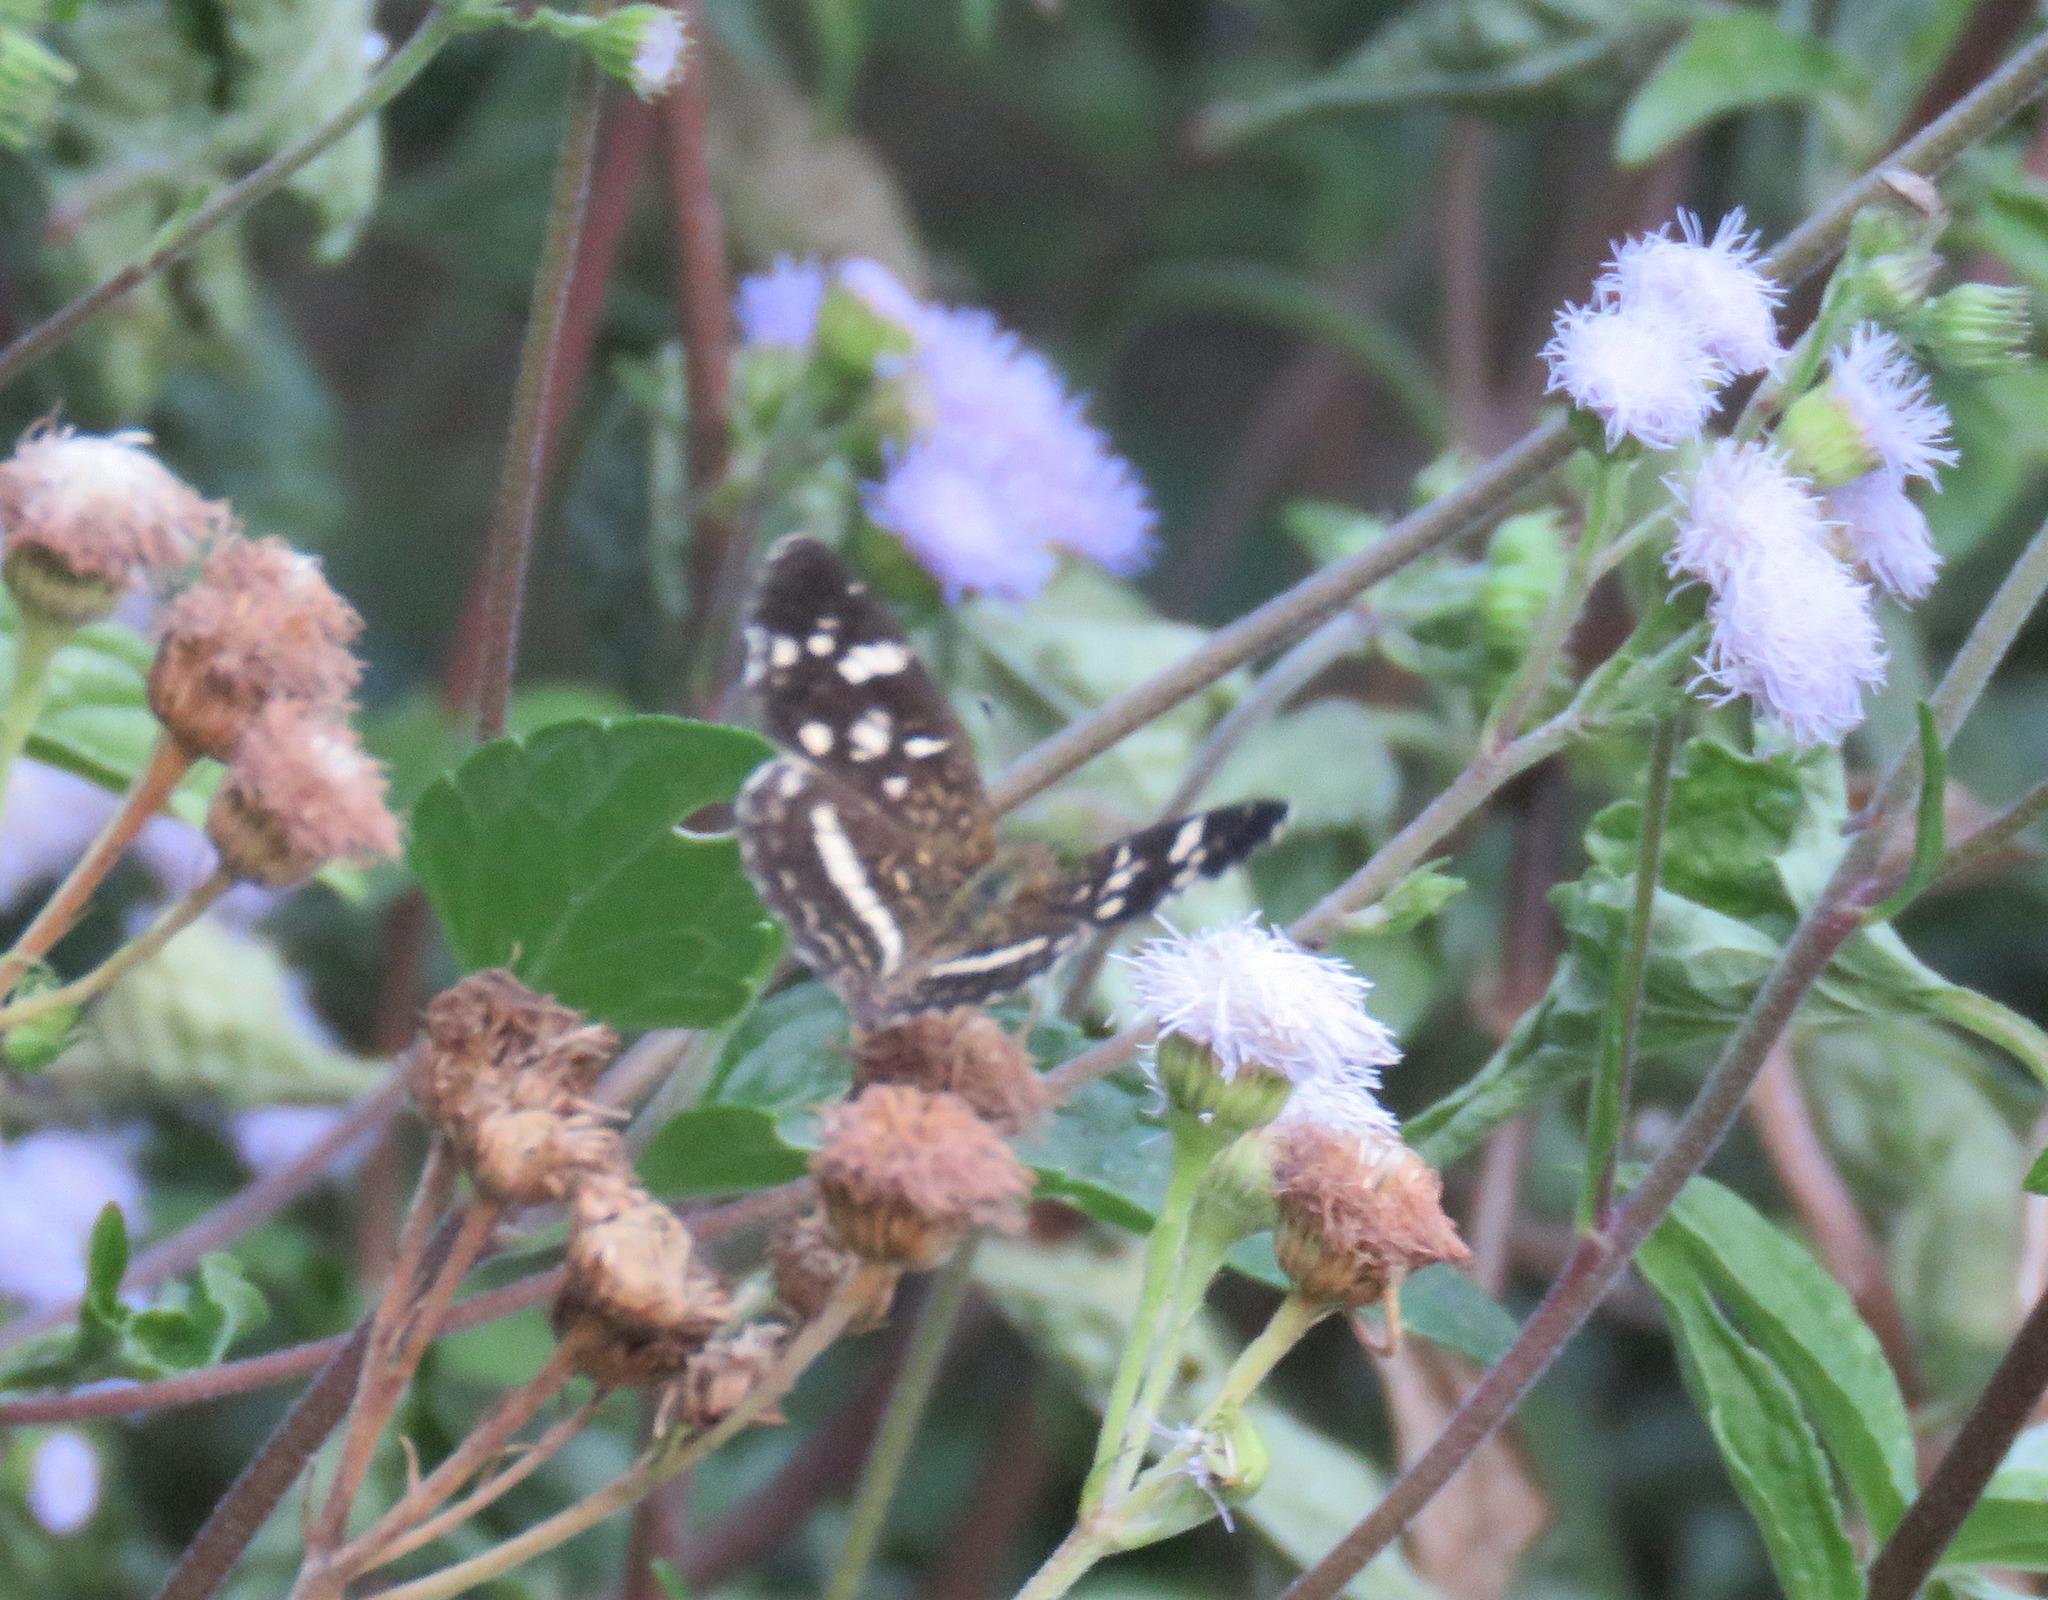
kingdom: Animalia
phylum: Arthropoda
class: Insecta
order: Lepidoptera
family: Nymphalidae
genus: Anthanassa
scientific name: Anthanassa tulcis
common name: Pale-banded crescent
